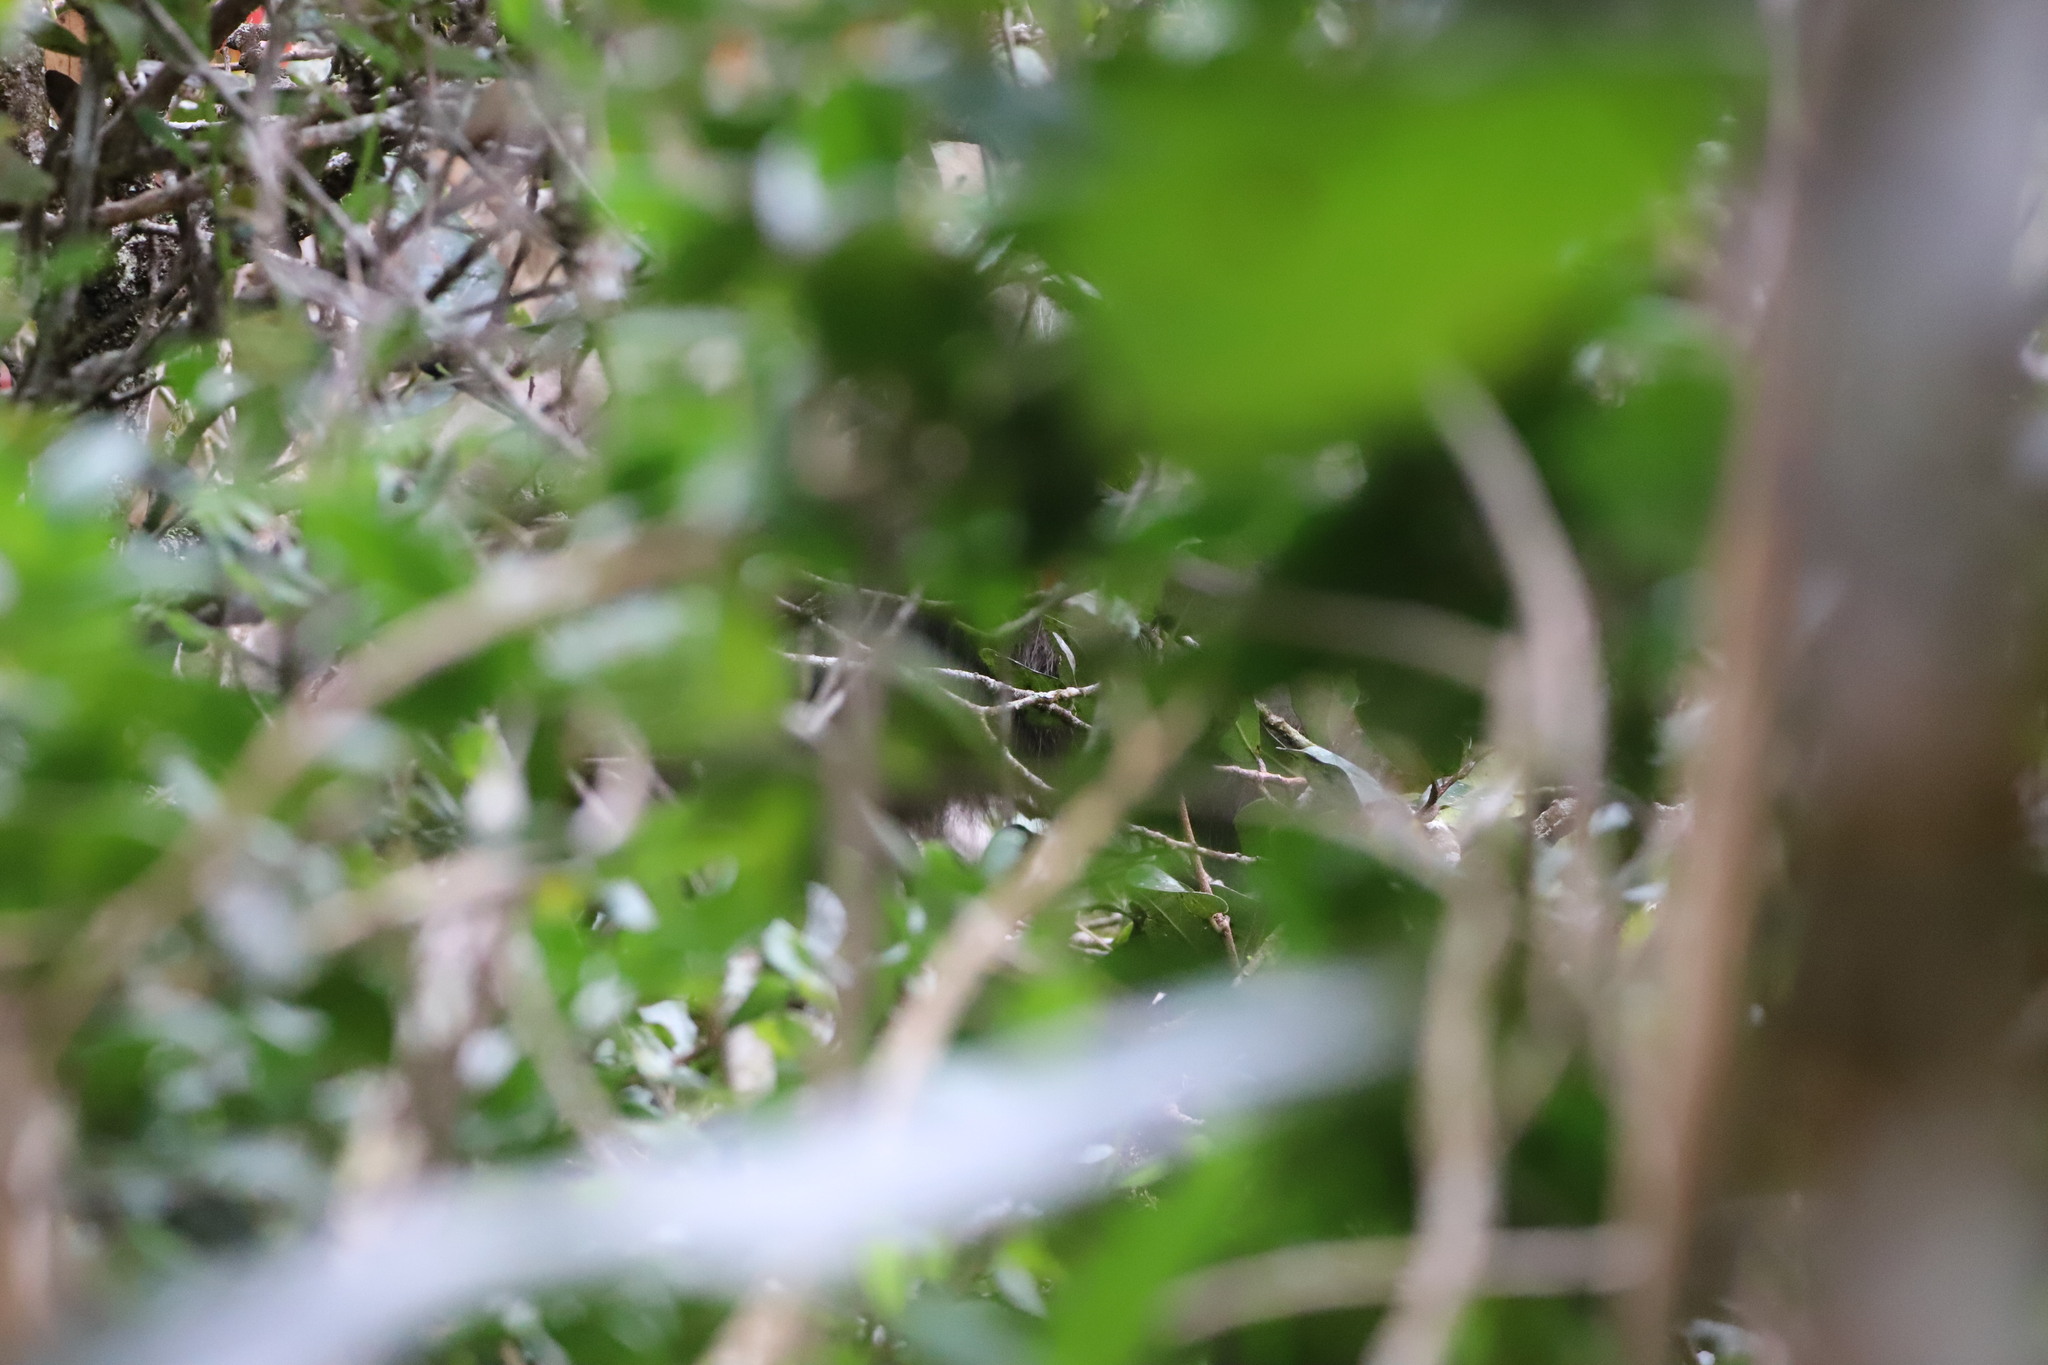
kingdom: Animalia
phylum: Chordata
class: Mammalia
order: Primates
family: Cercopithecidae
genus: Semnopithecus
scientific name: Semnopithecus vetulus
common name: Purple-faced langur
